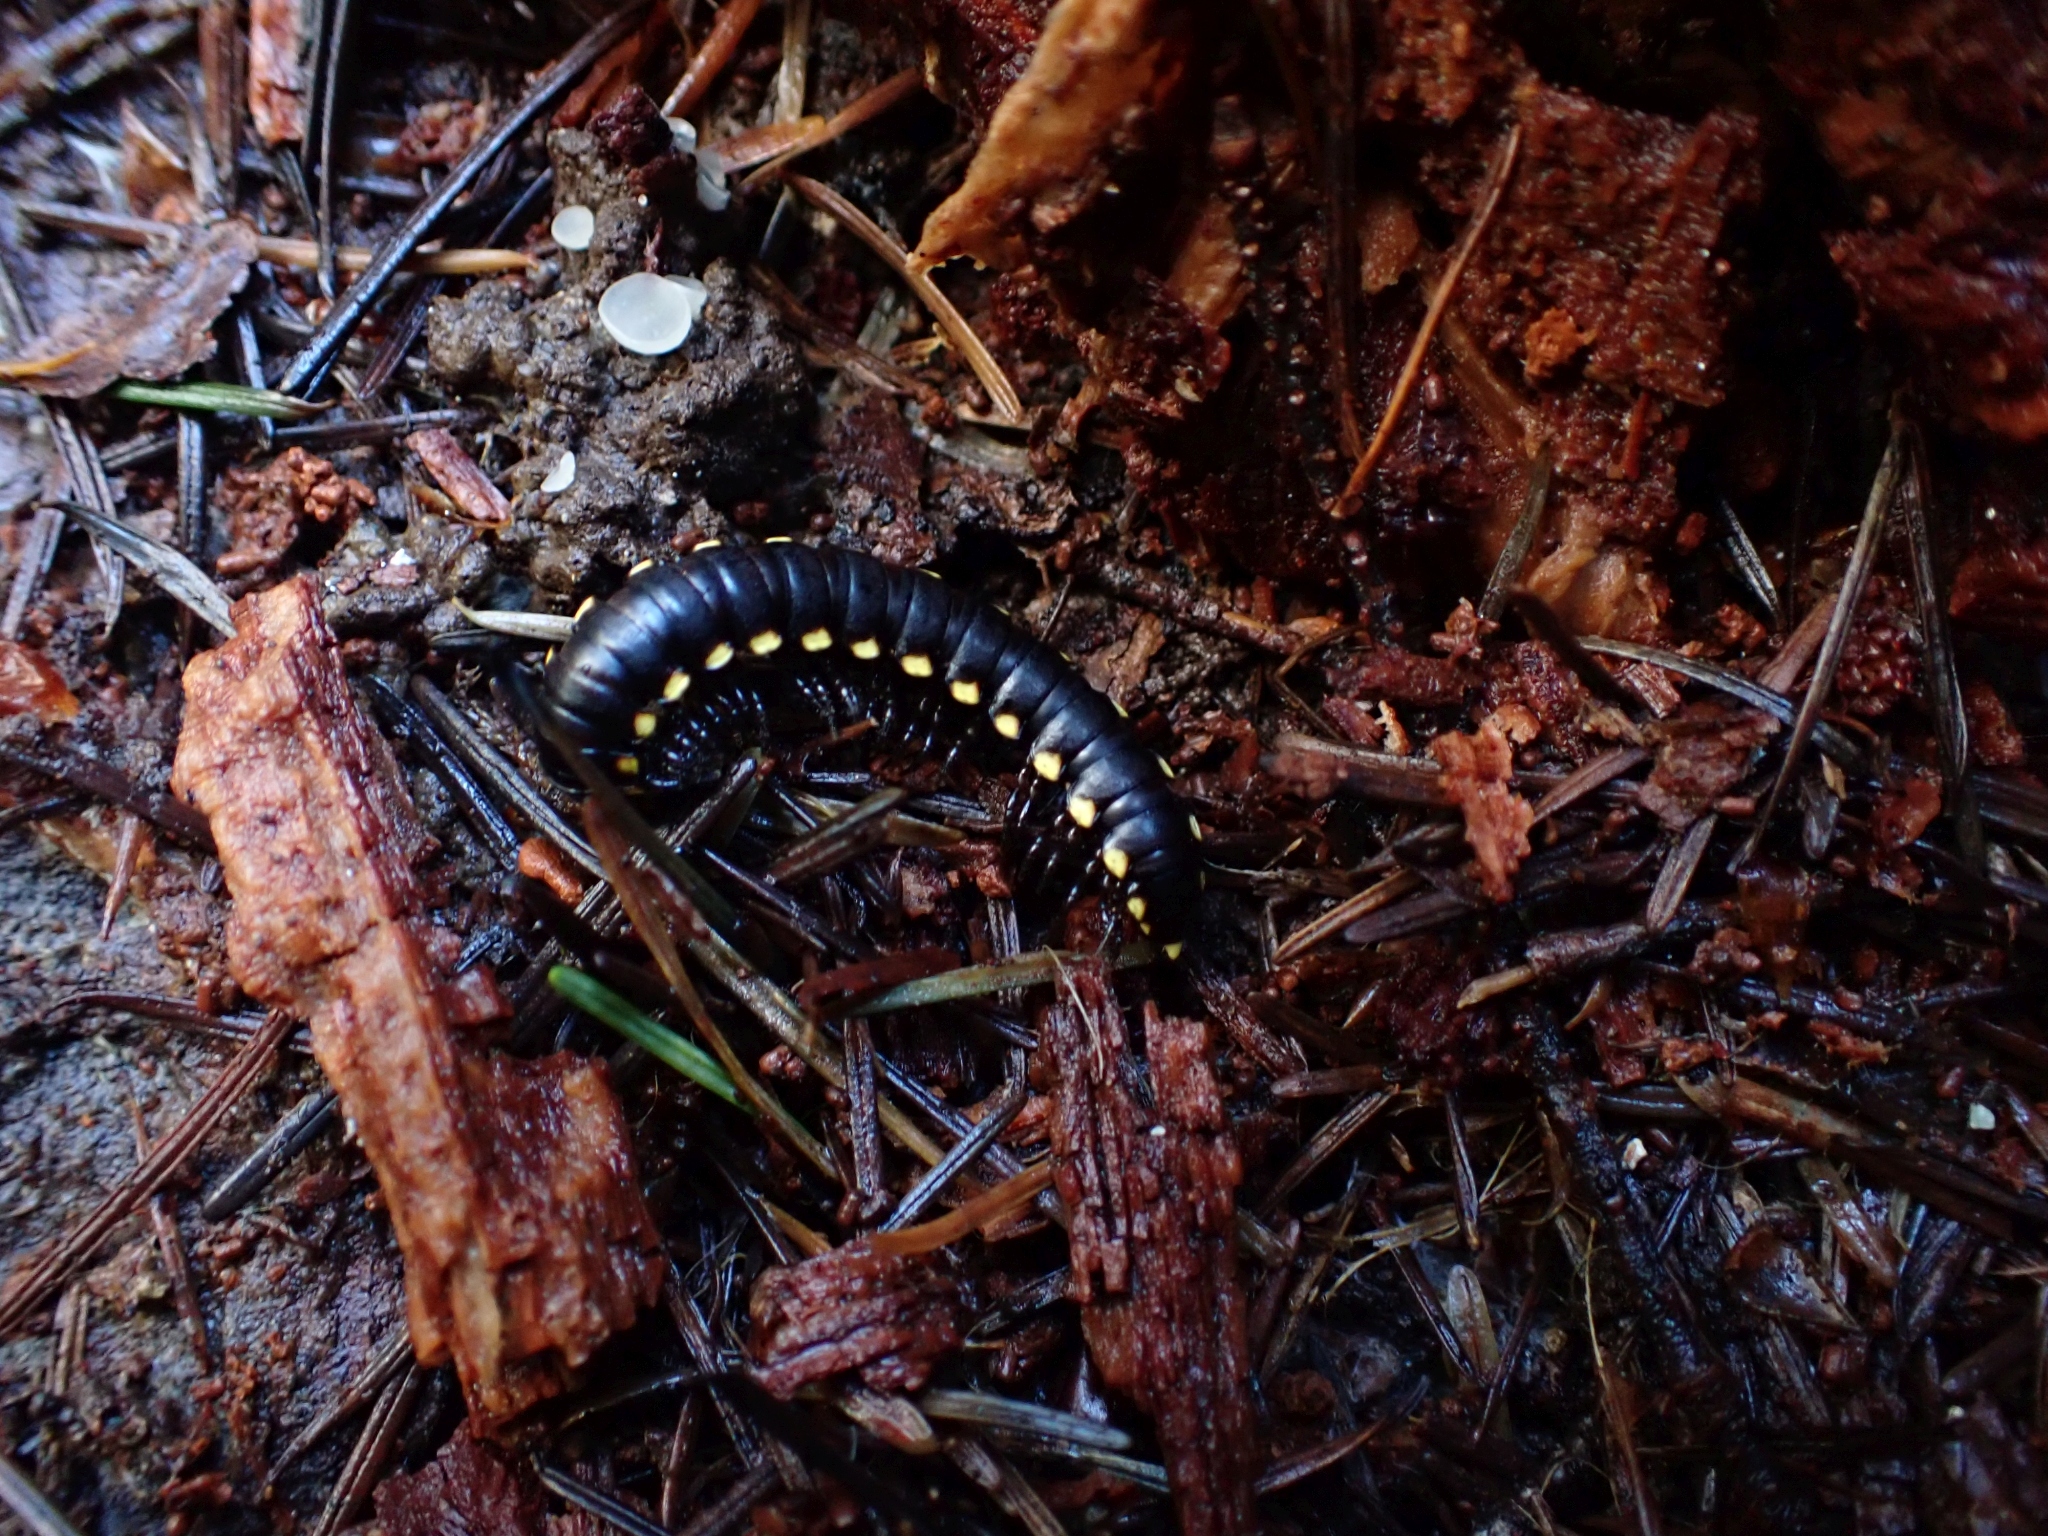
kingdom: Animalia
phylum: Arthropoda
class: Diplopoda
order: Polydesmida
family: Xystodesmidae
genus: Harpaphe
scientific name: Harpaphe haydeniana
